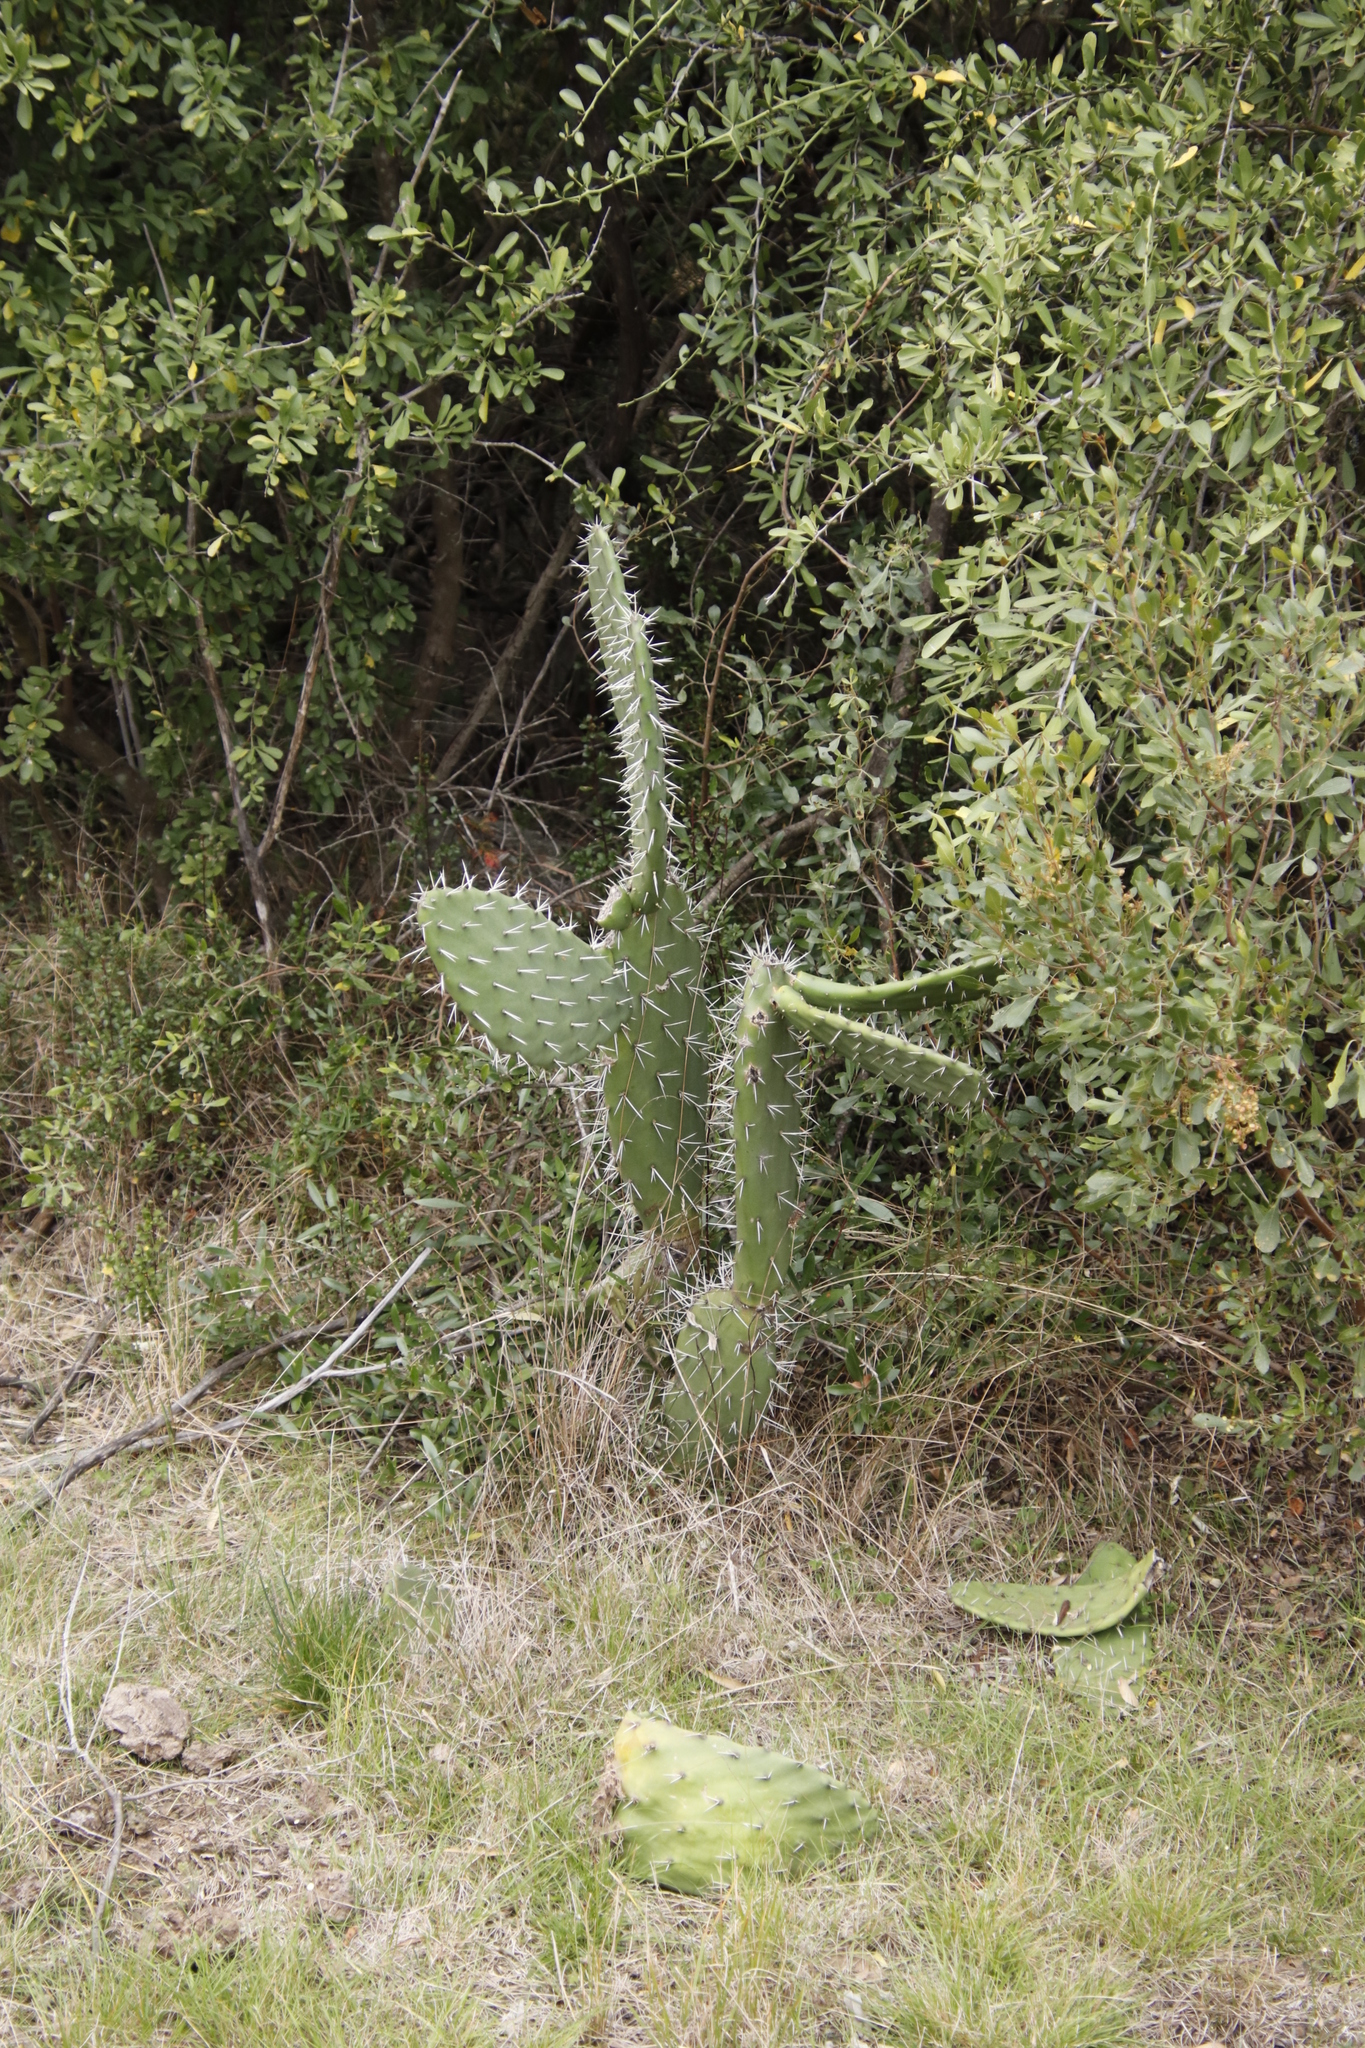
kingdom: Plantae
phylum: Tracheophyta
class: Magnoliopsida
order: Caryophyllales
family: Cactaceae
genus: Opuntia
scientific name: Opuntia ficus-indica
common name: Barbary fig
